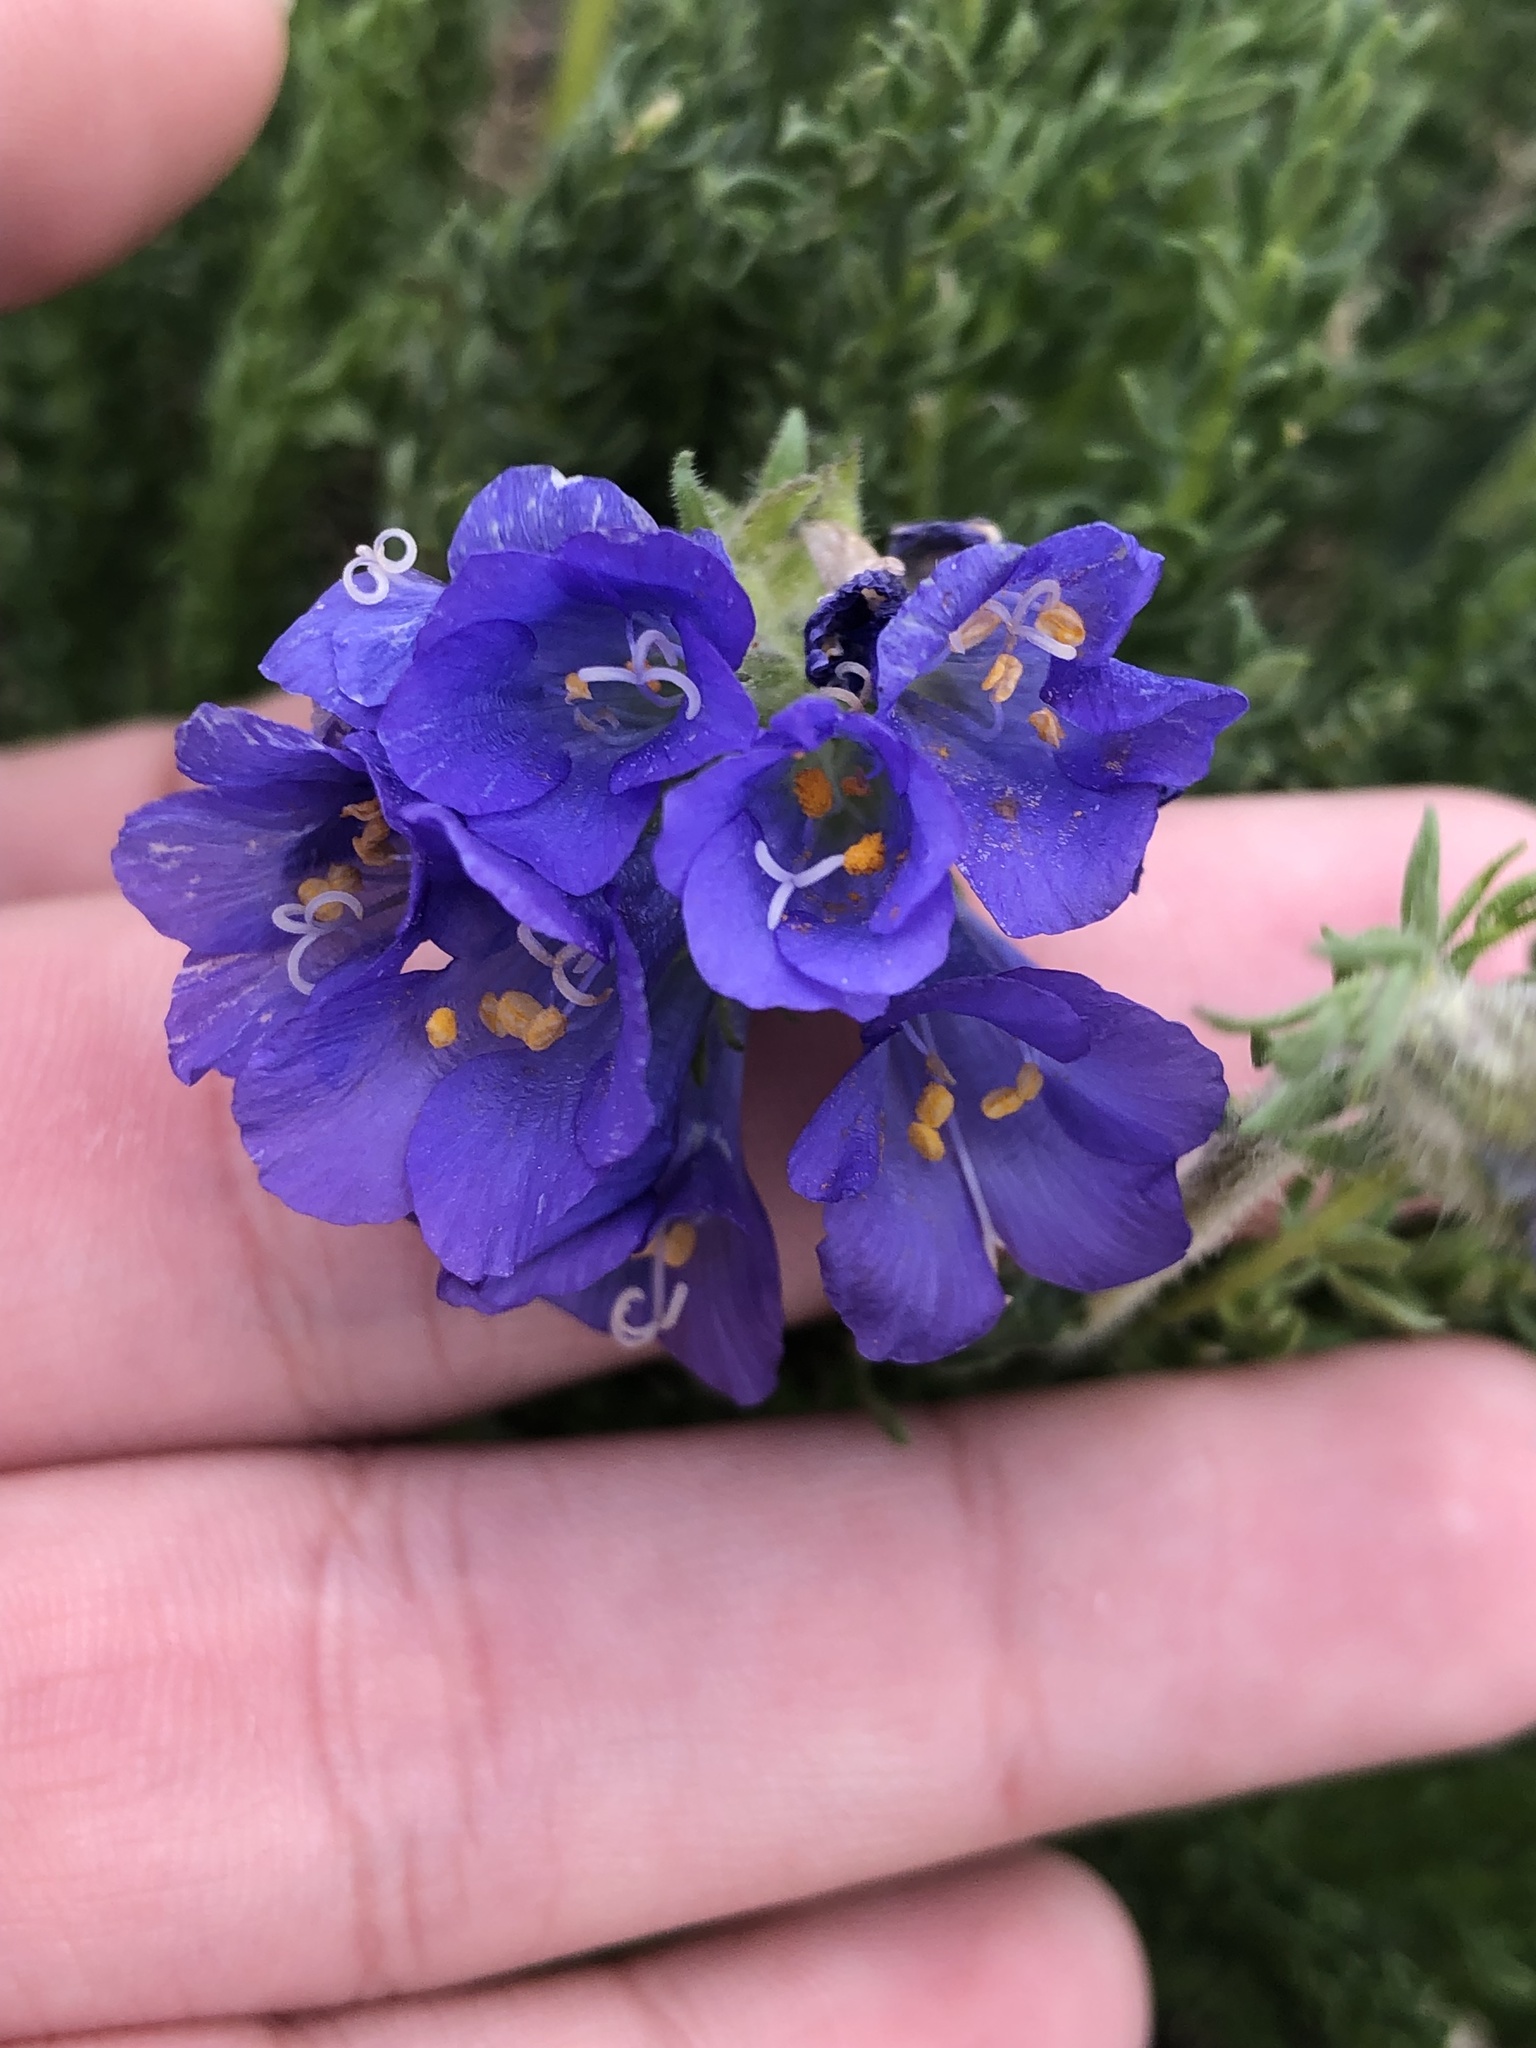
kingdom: Plantae
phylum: Tracheophyta
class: Magnoliopsida
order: Ericales
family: Polemoniaceae
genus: Polemonium
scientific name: Polemonium viscosum
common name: Skunk jacob's-ladder
